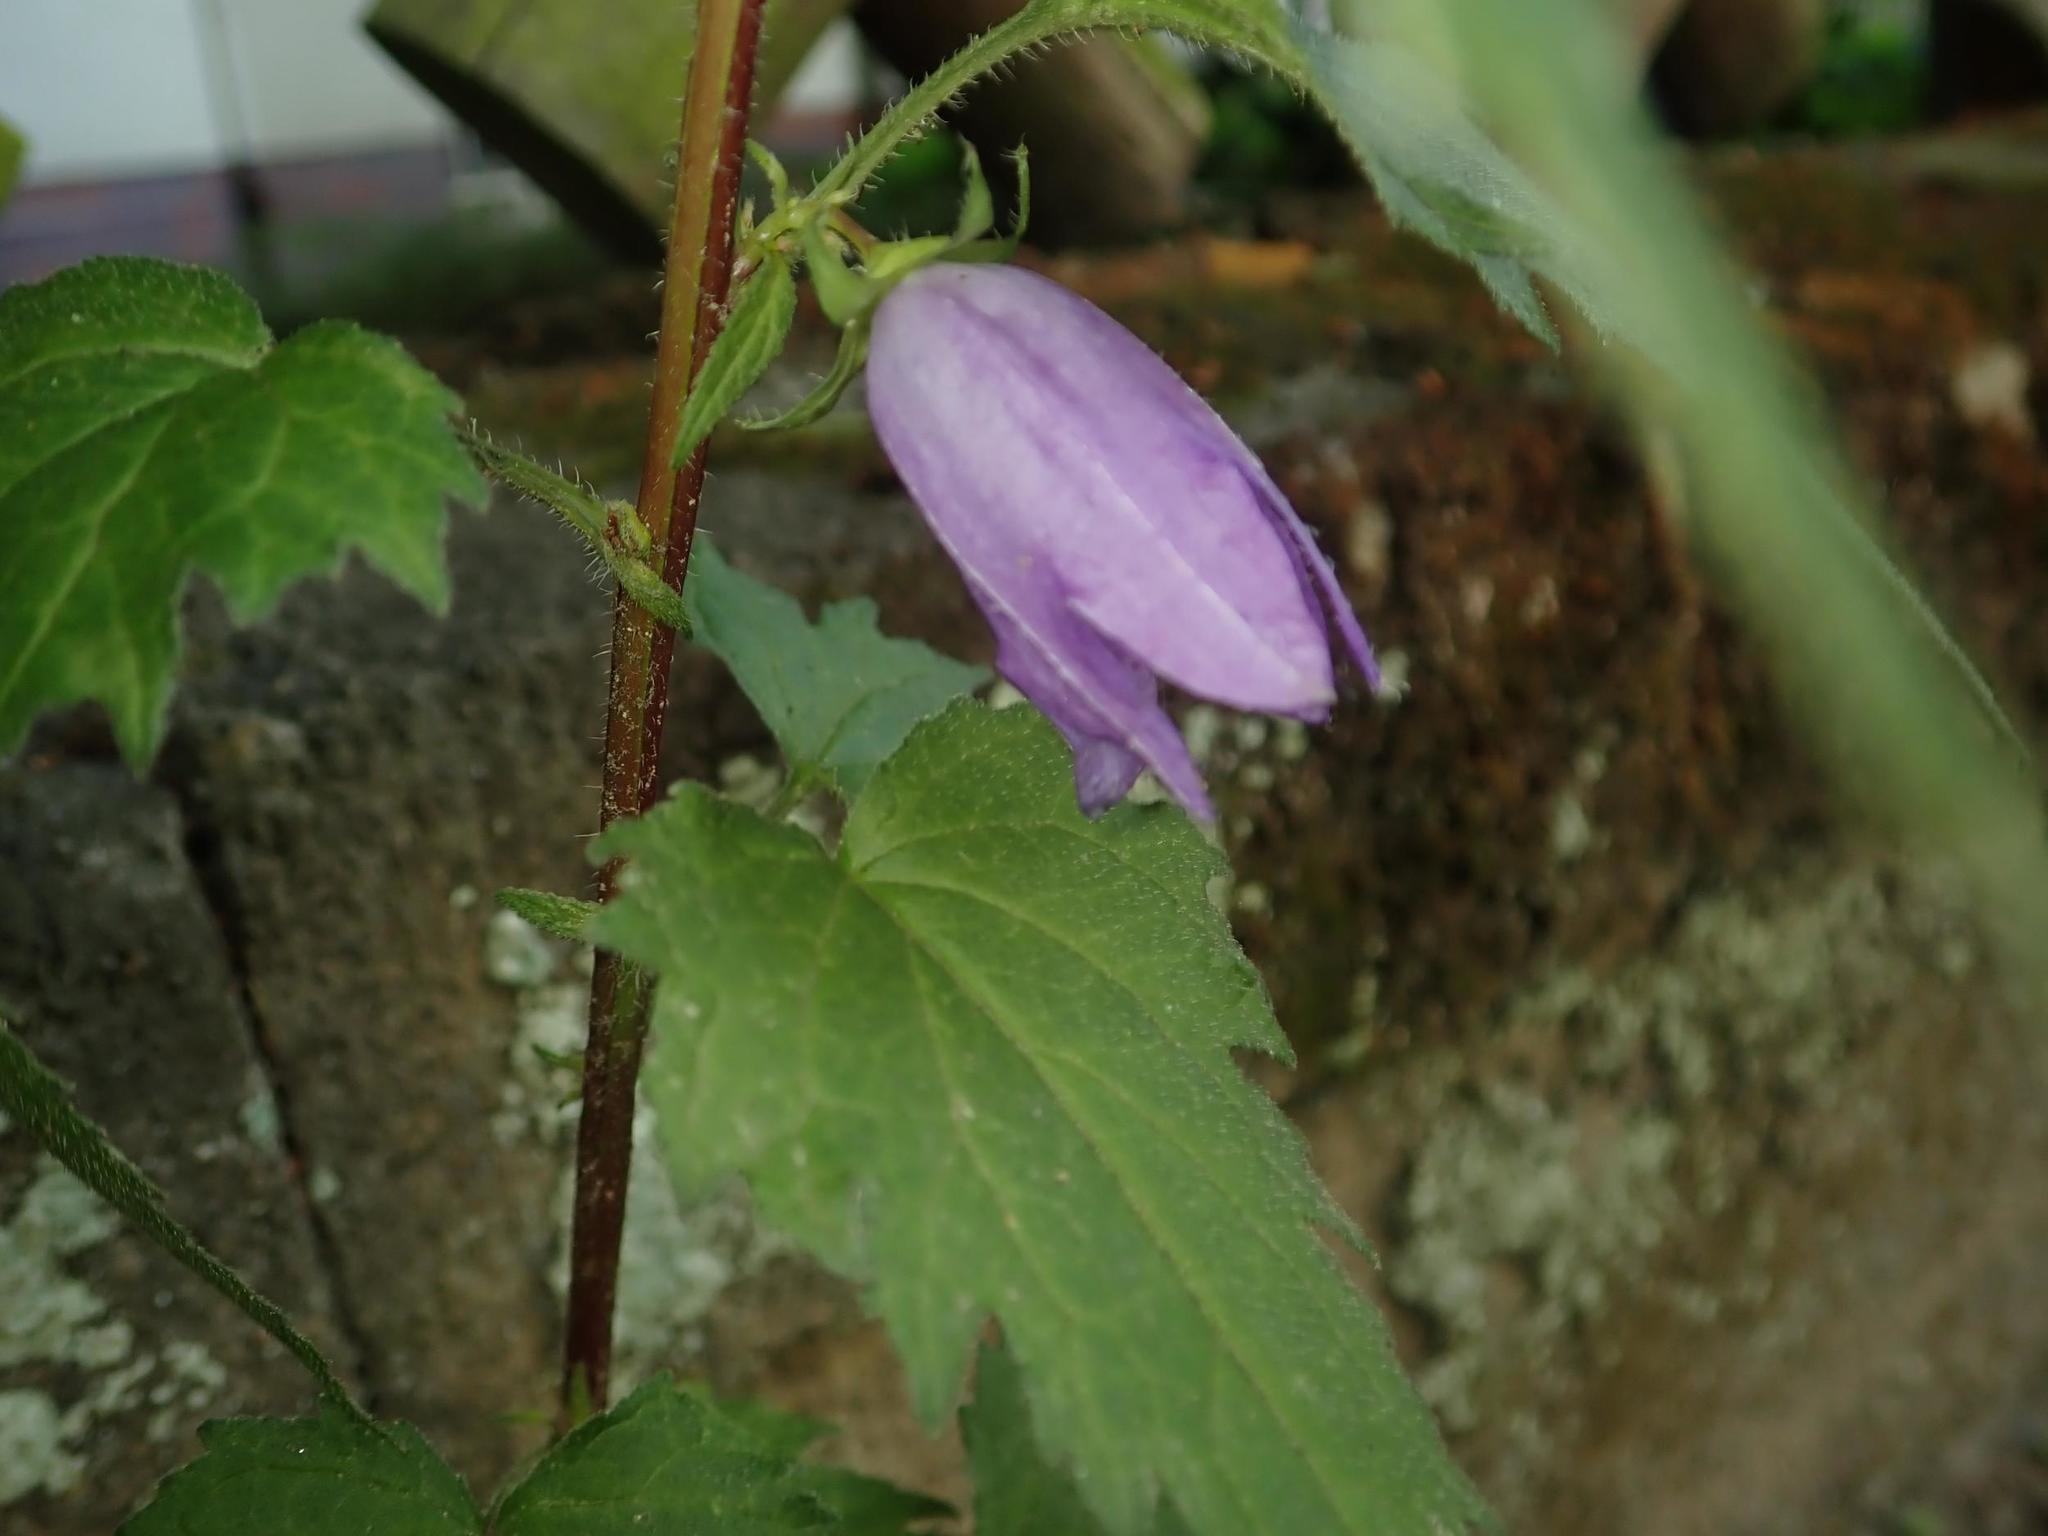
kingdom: Plantae
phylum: Tracheophyta
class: Magnoliopsida
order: Asterales
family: Campanulaceae
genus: Campanula
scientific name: Campanula trachelium
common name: Nettle-leaved bellflower
